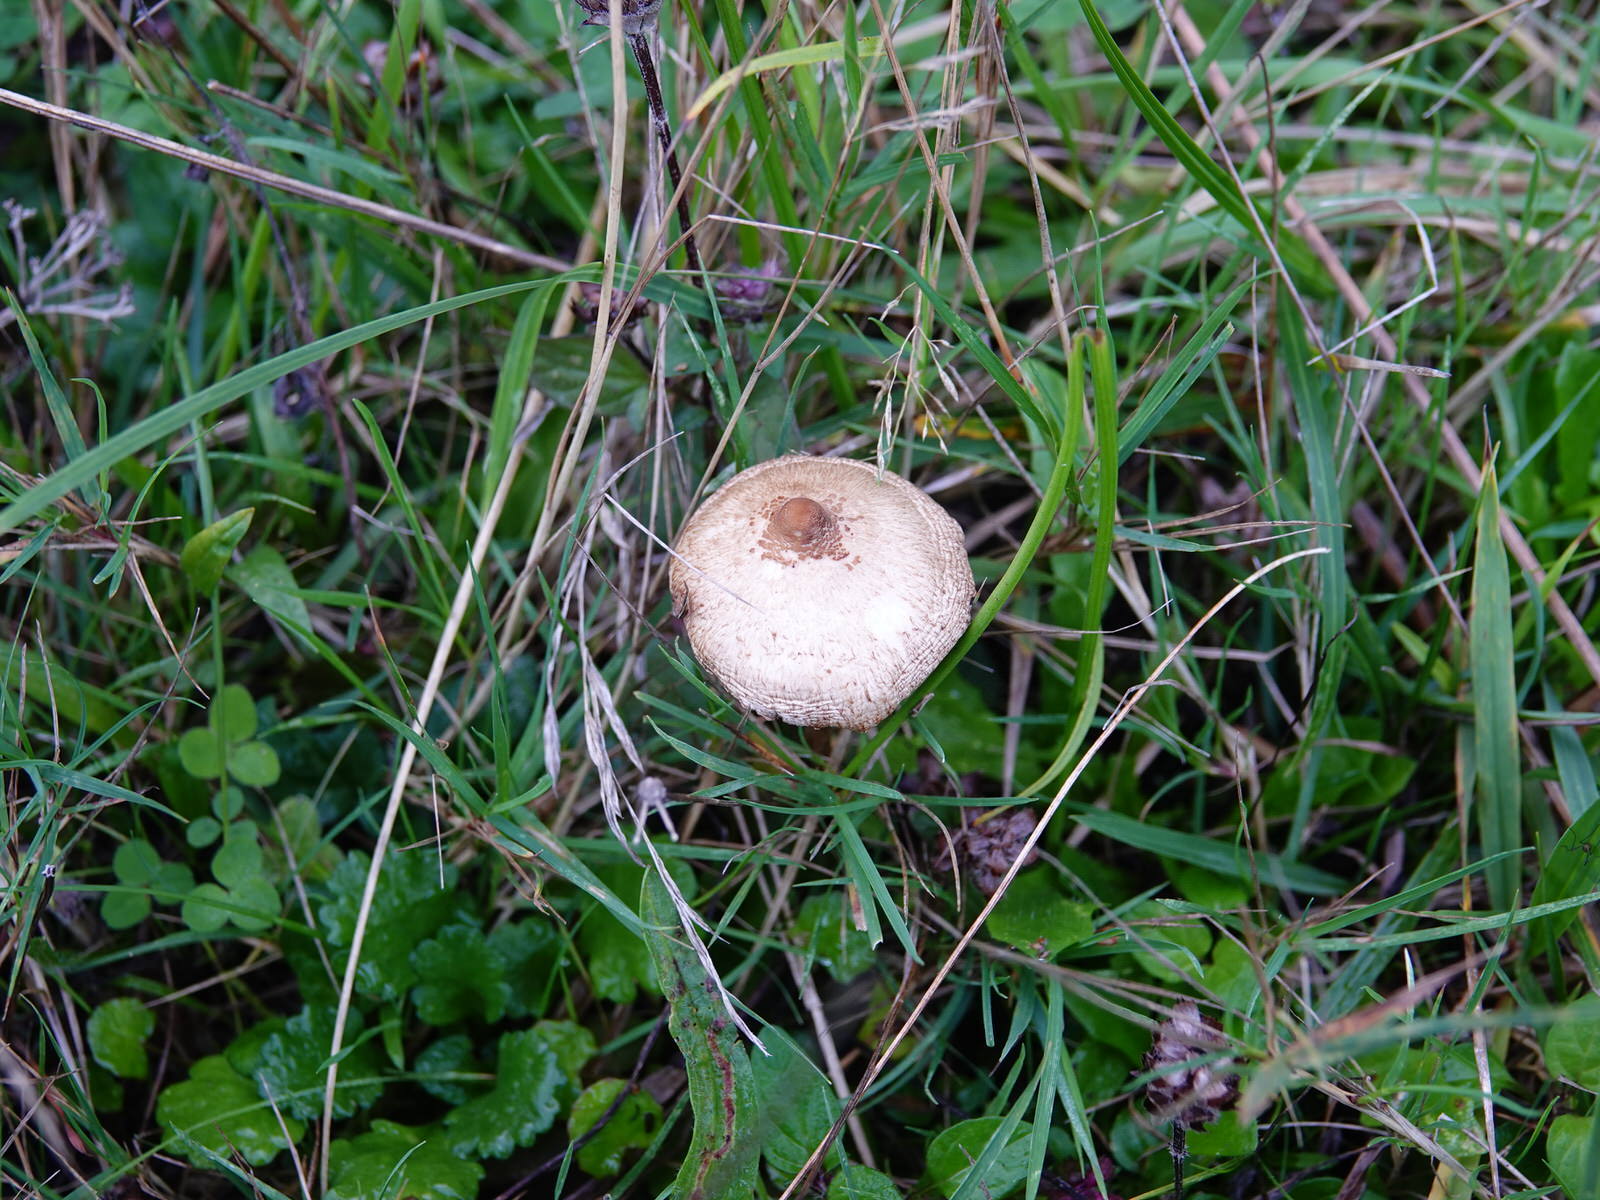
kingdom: Fungi
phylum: Basidiomycota
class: Agaricomycetes
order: Agaricales
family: Agaricaceae
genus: Macrolepiota
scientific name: Macrolepiota clelandii
